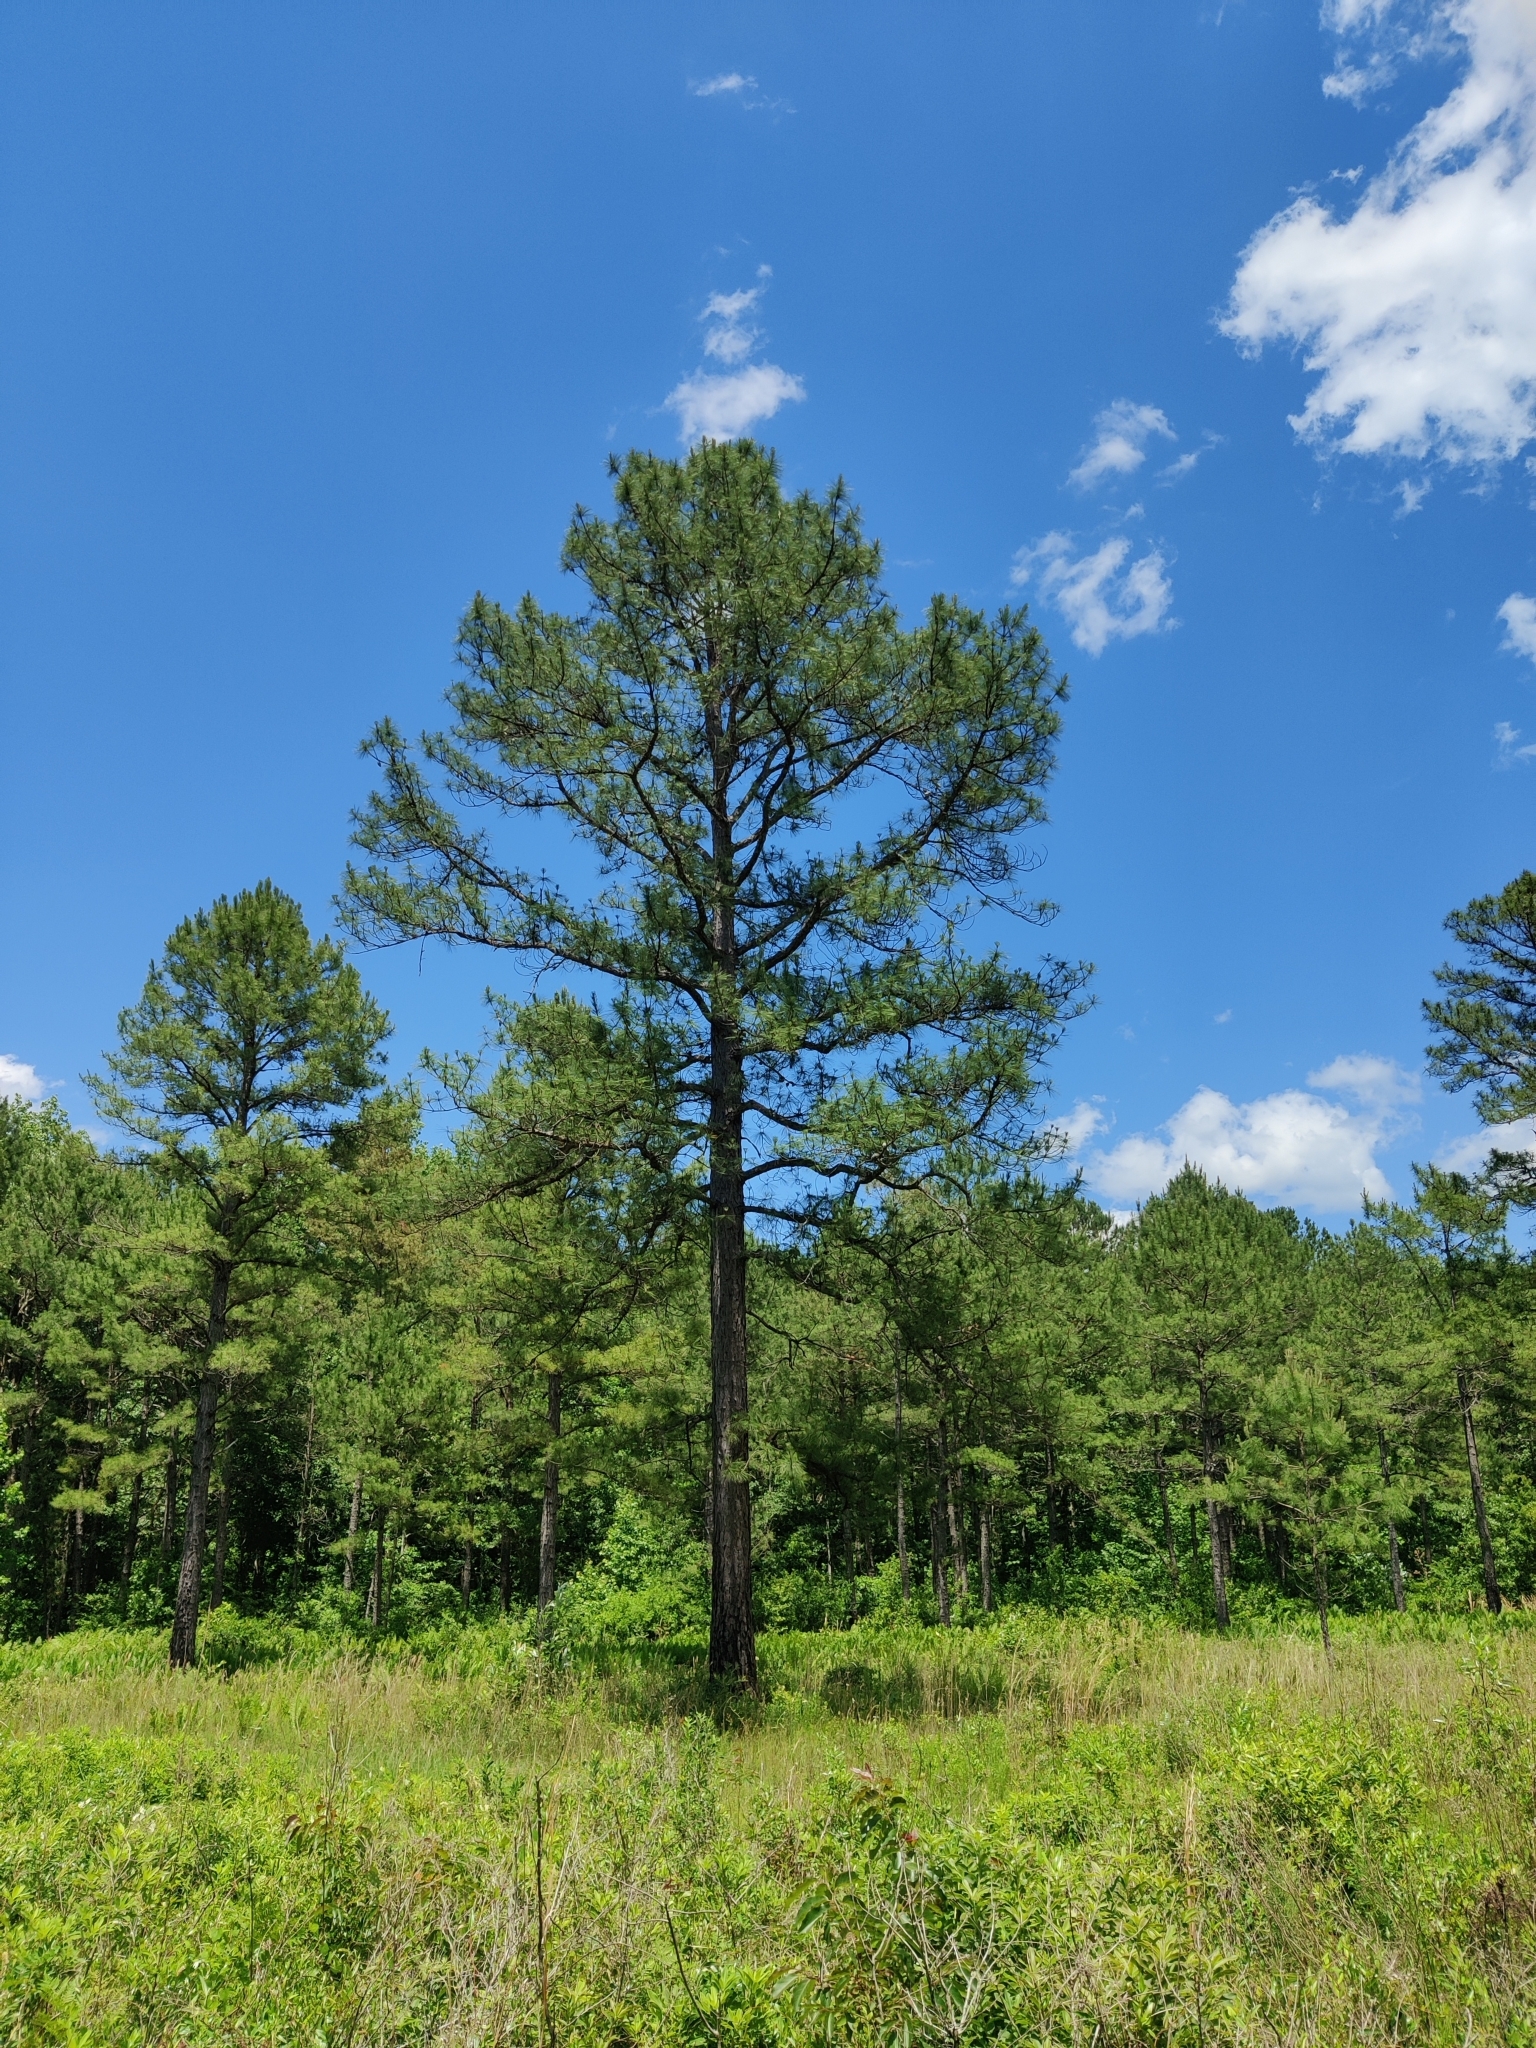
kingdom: Plantae
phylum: Tracheophyta
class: Pinopsida
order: Pinales
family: Pinaceae
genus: Pinus
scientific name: Pinus serotina
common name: Marsh pine
